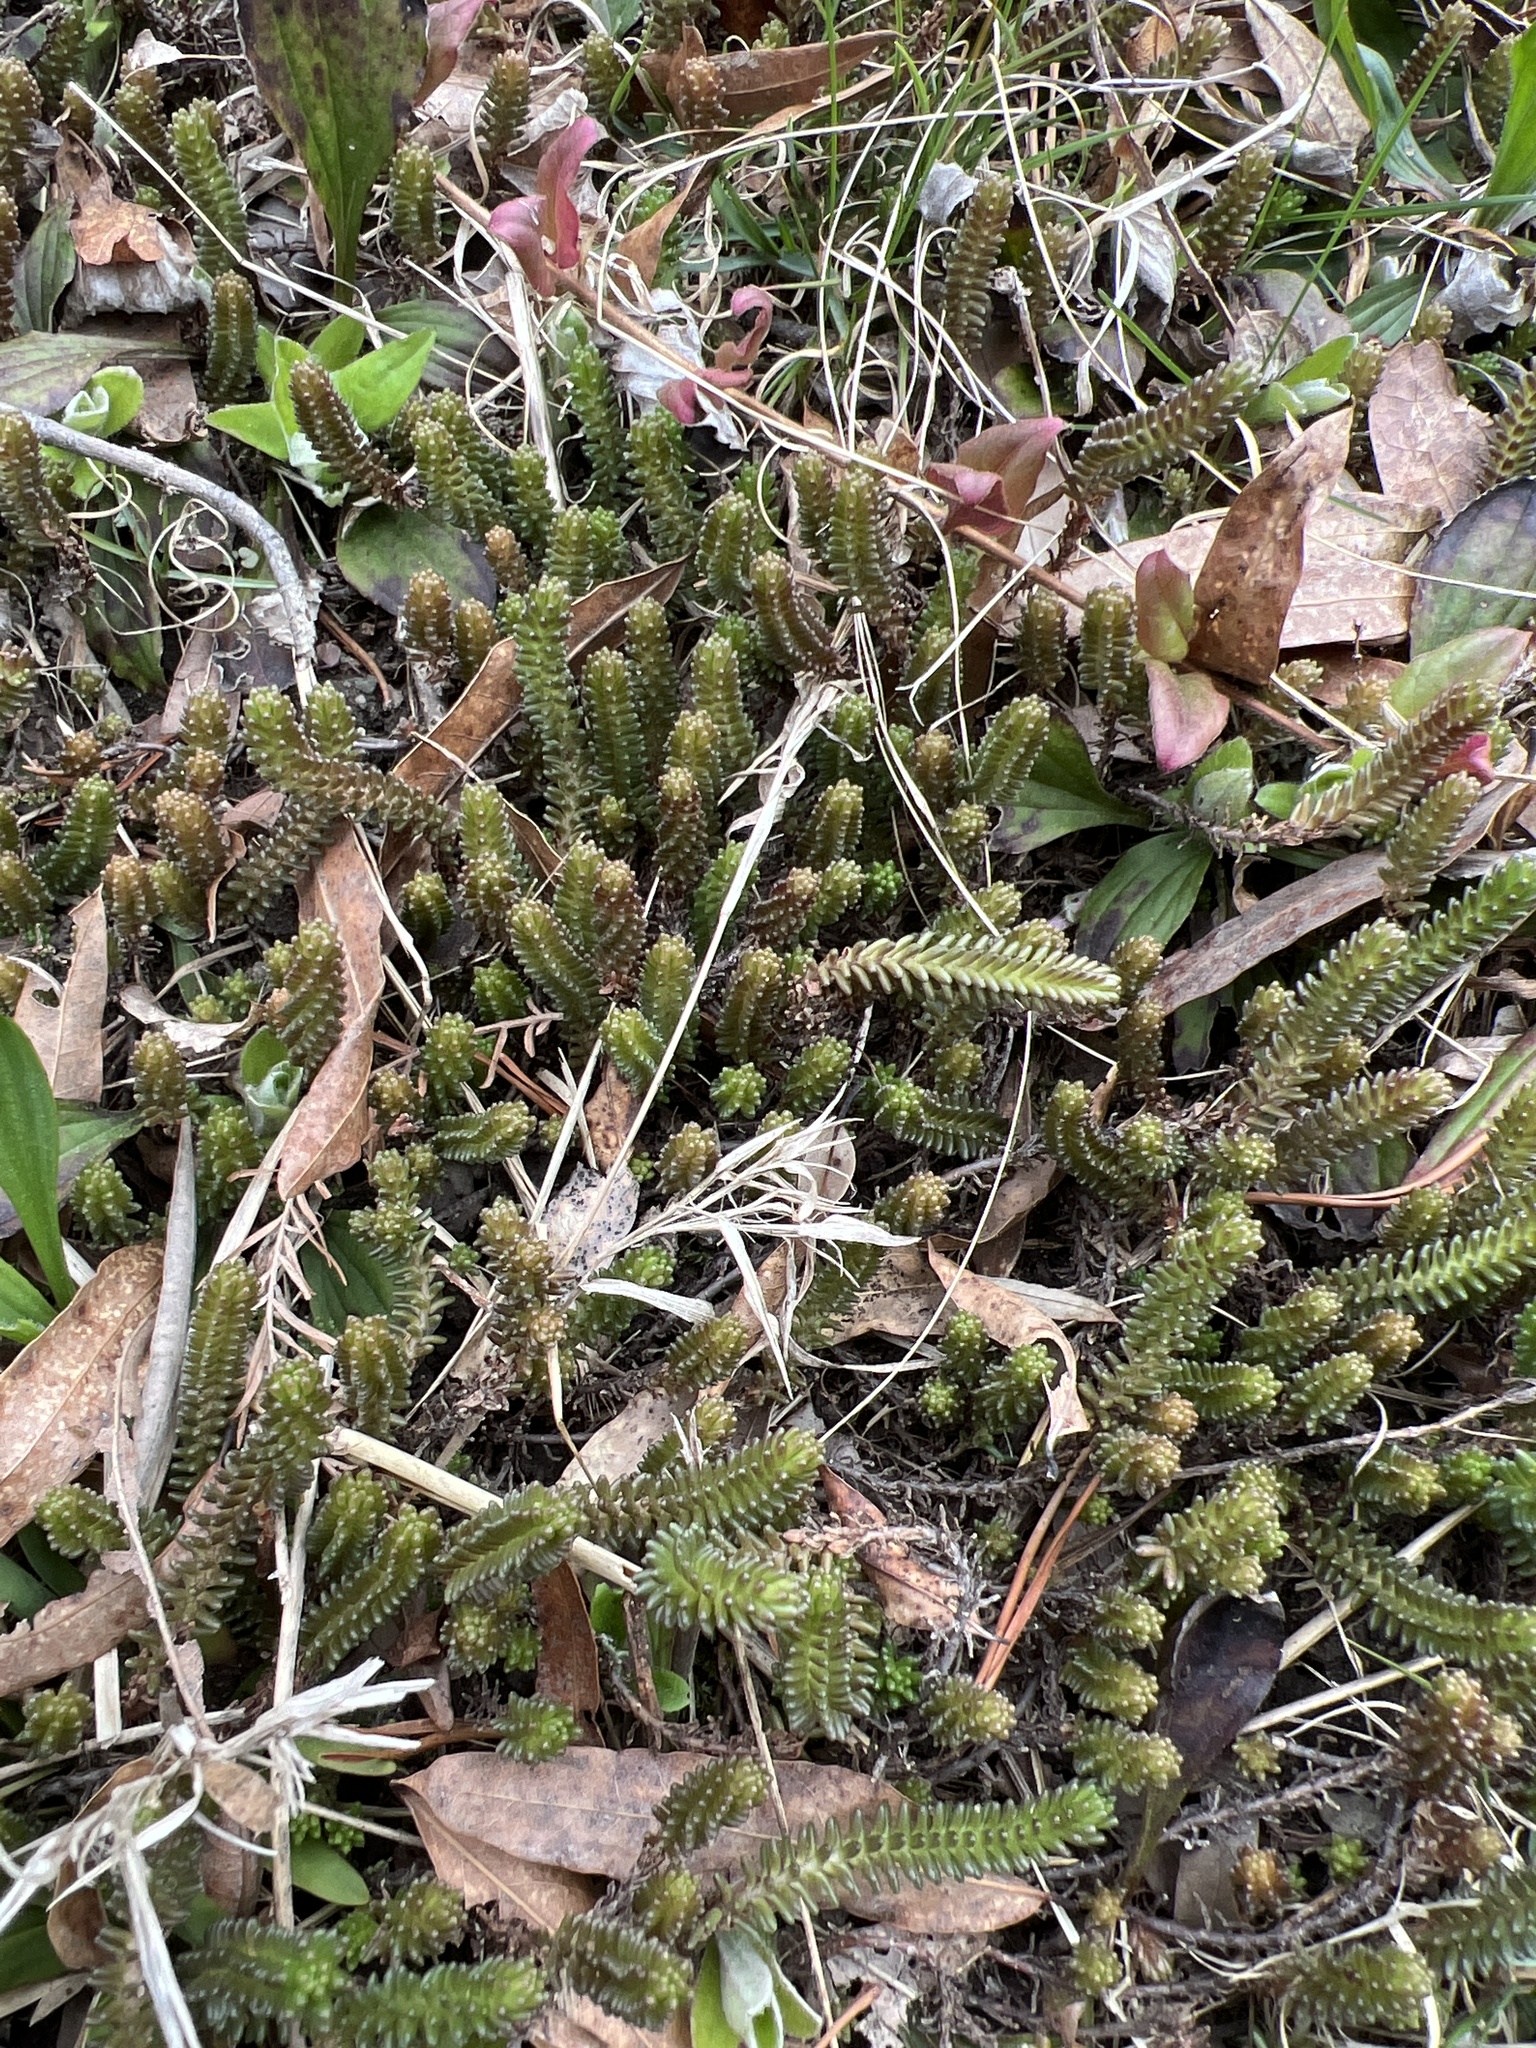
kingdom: Plantae
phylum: Tracheophyta
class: Magnoliopsida
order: Saxifragales
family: Crassulaceae
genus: Sedum
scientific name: Sedum sexangulare
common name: Tasteless stonecrop
